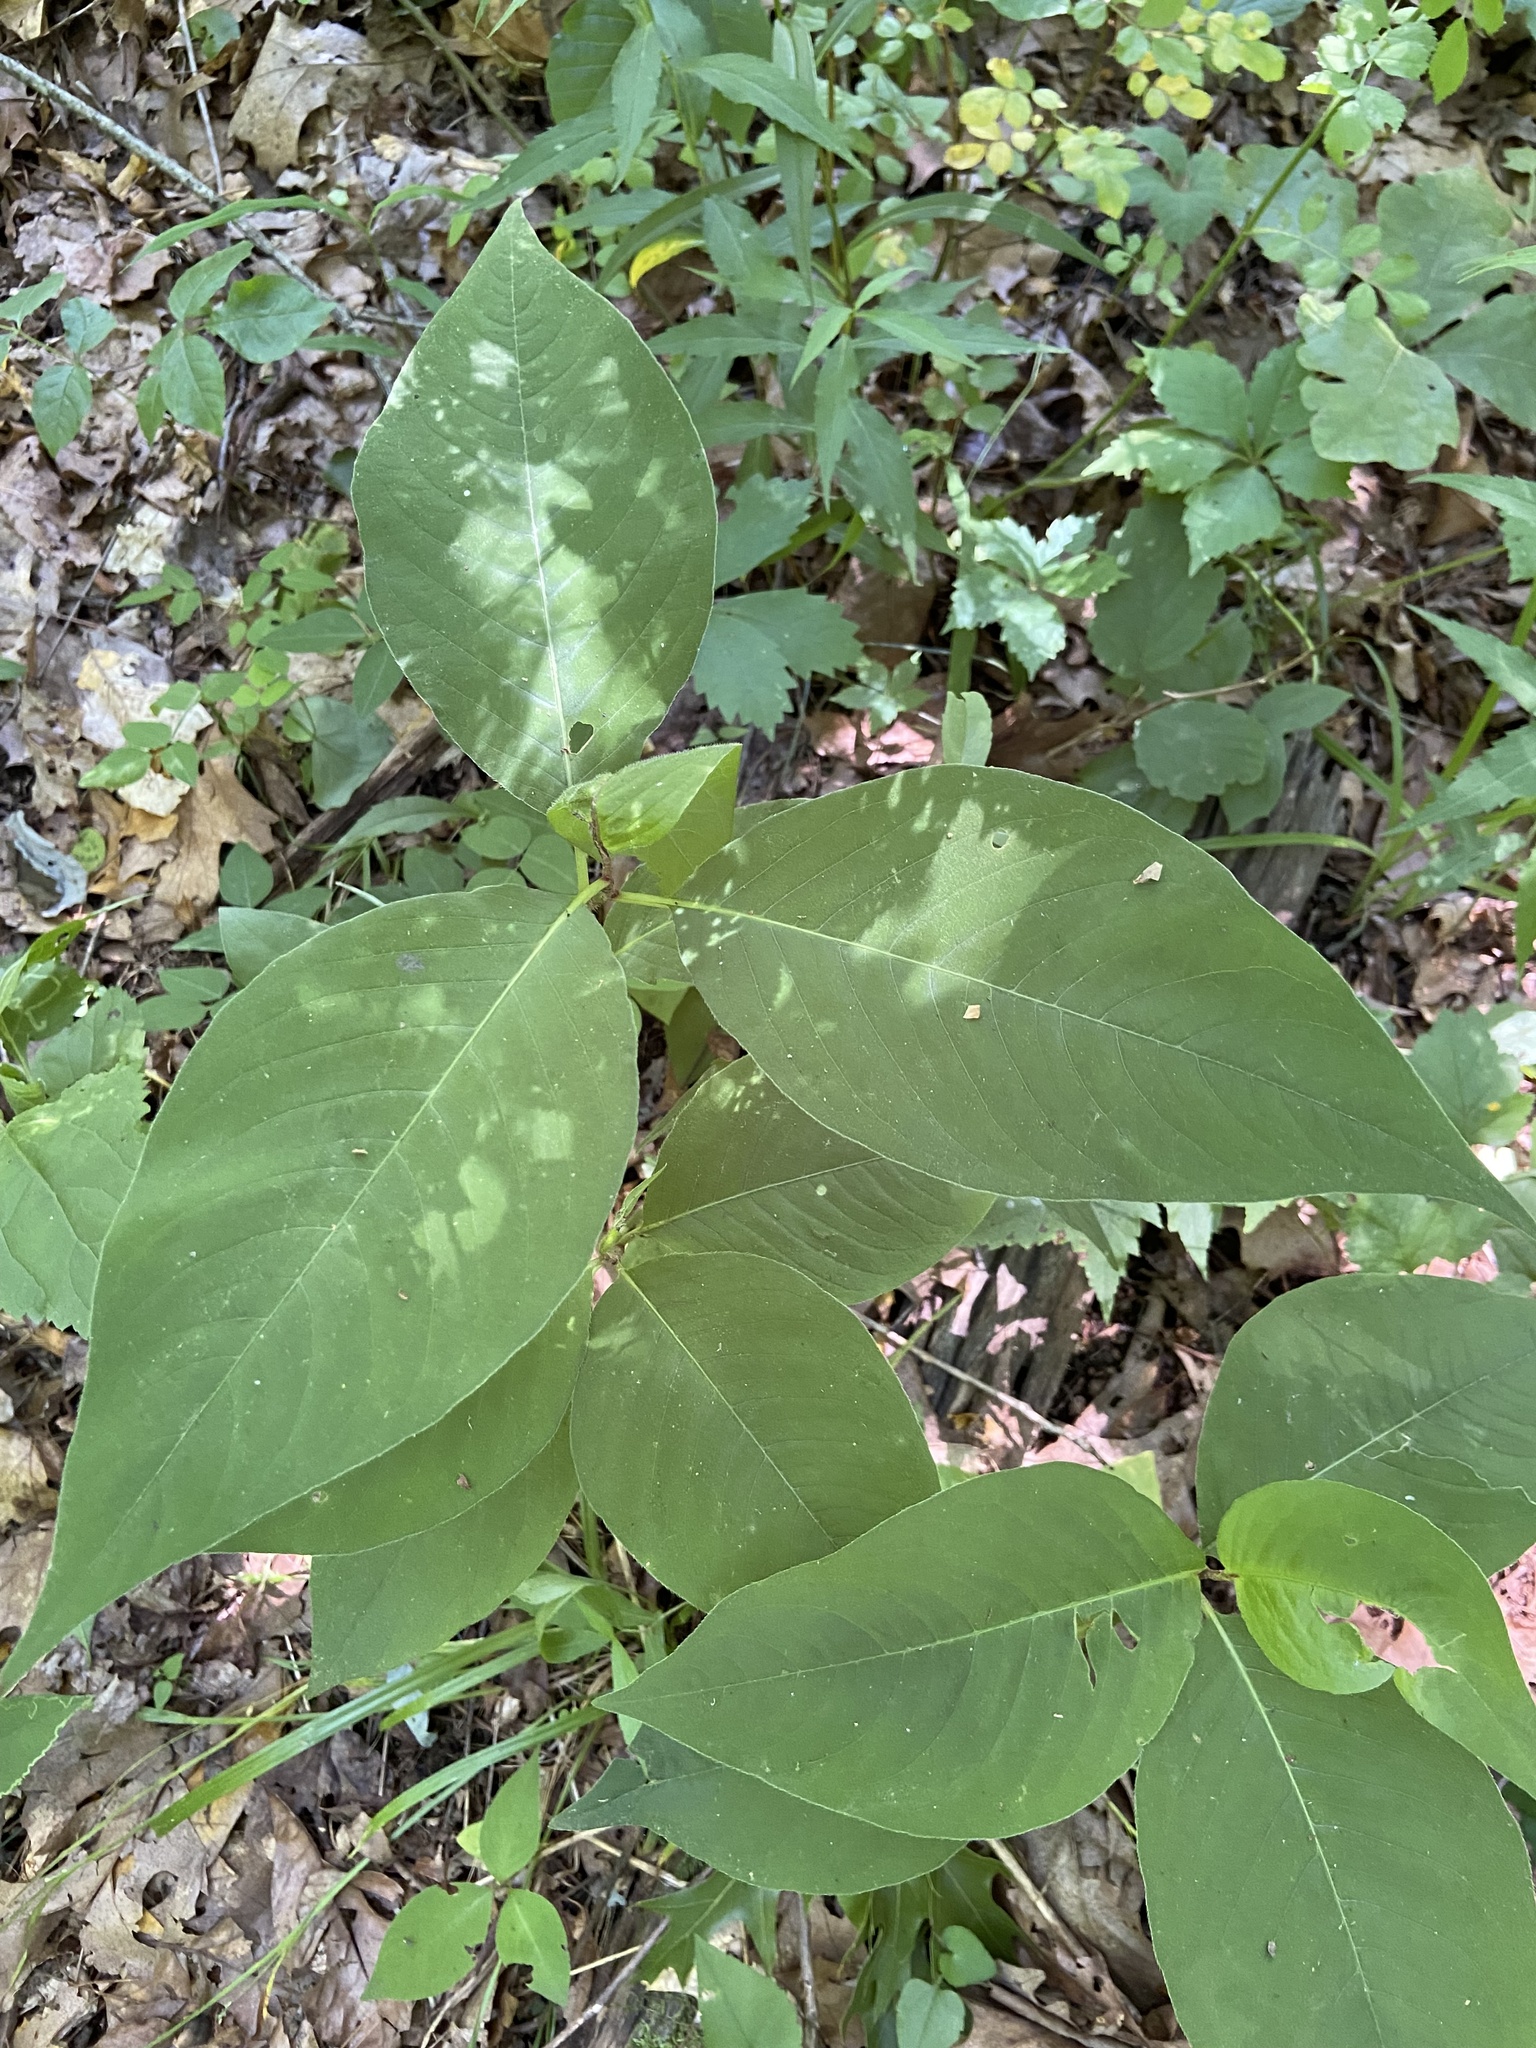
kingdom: Plantae
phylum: Tracheophyta
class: Magnoliopsida
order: Caryophyllales
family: Polygonaceae
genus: Persicaria
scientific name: Persicaria virginiana
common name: Jumpseed
